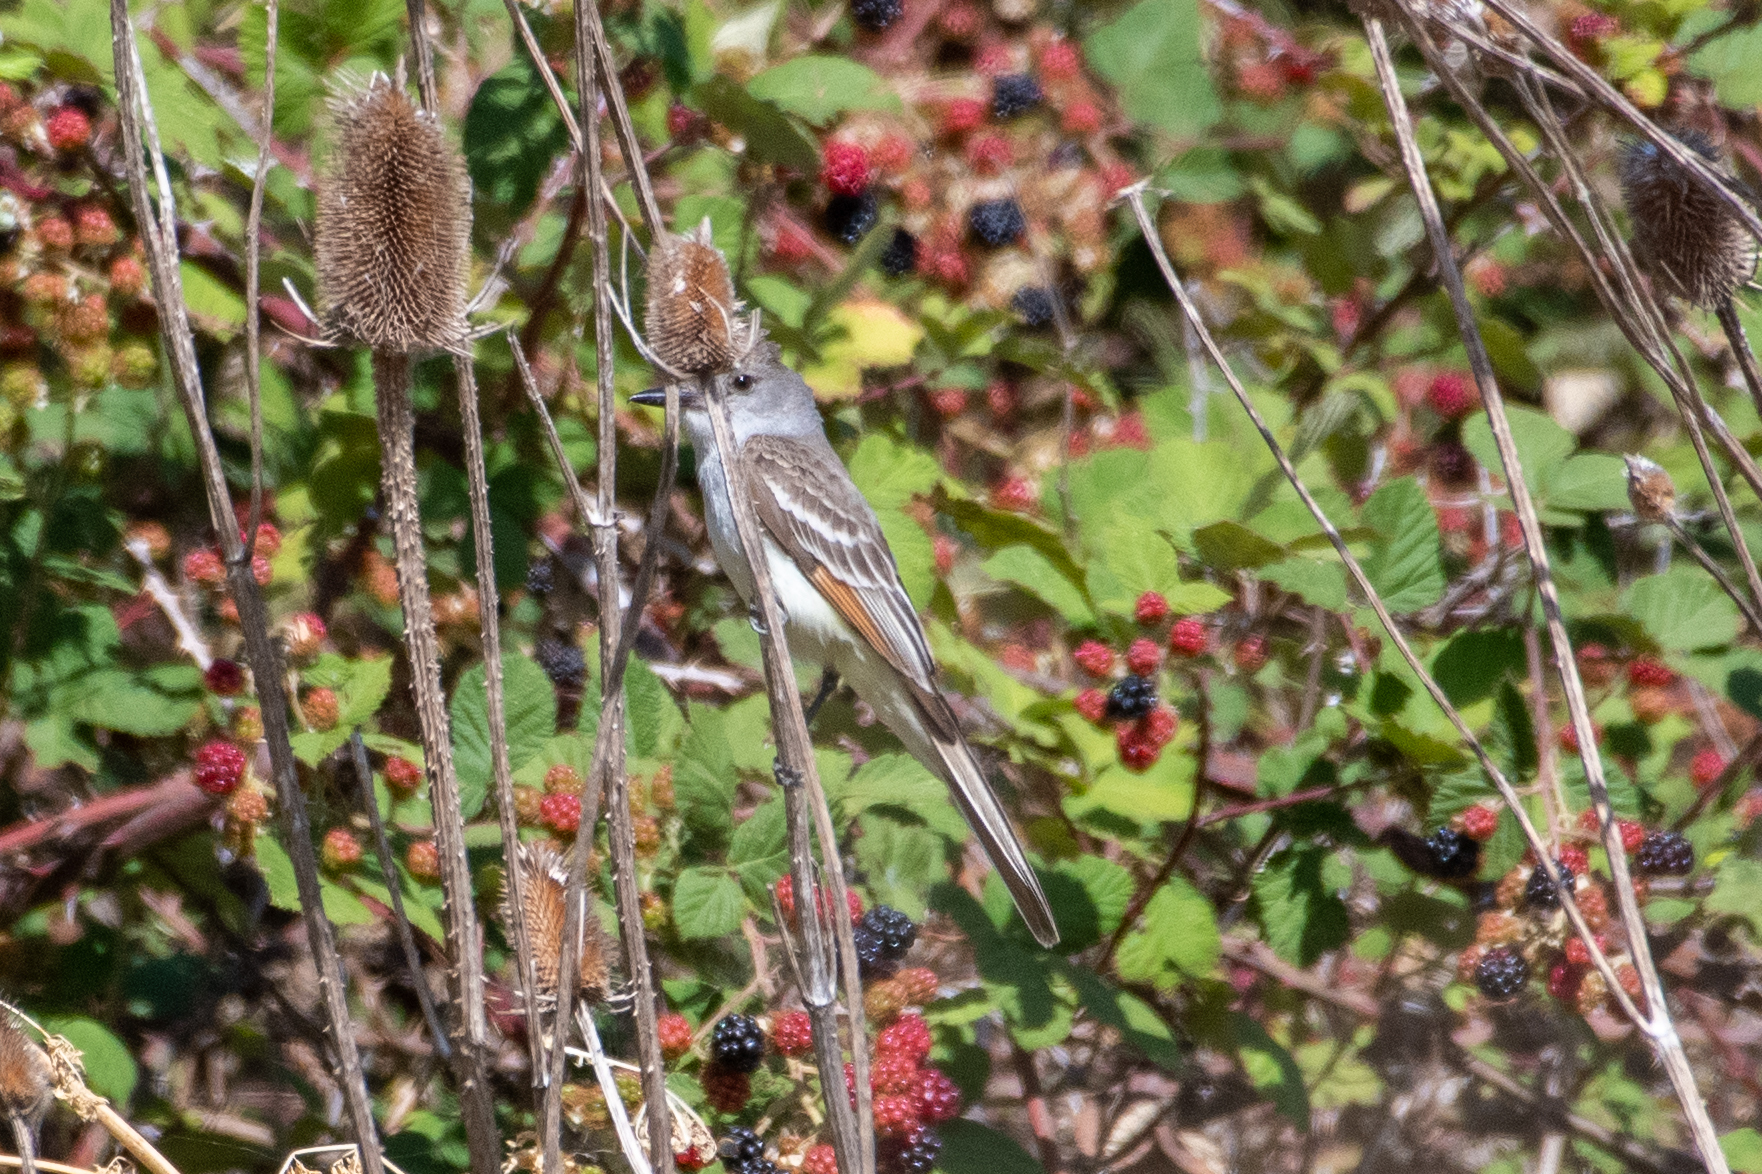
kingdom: Animalia
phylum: Chordata
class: Aves
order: Passeriformes
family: Tyrannidae
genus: Myiarchus
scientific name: Myiarchus cinerascens
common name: Ash-throated flycatcher
